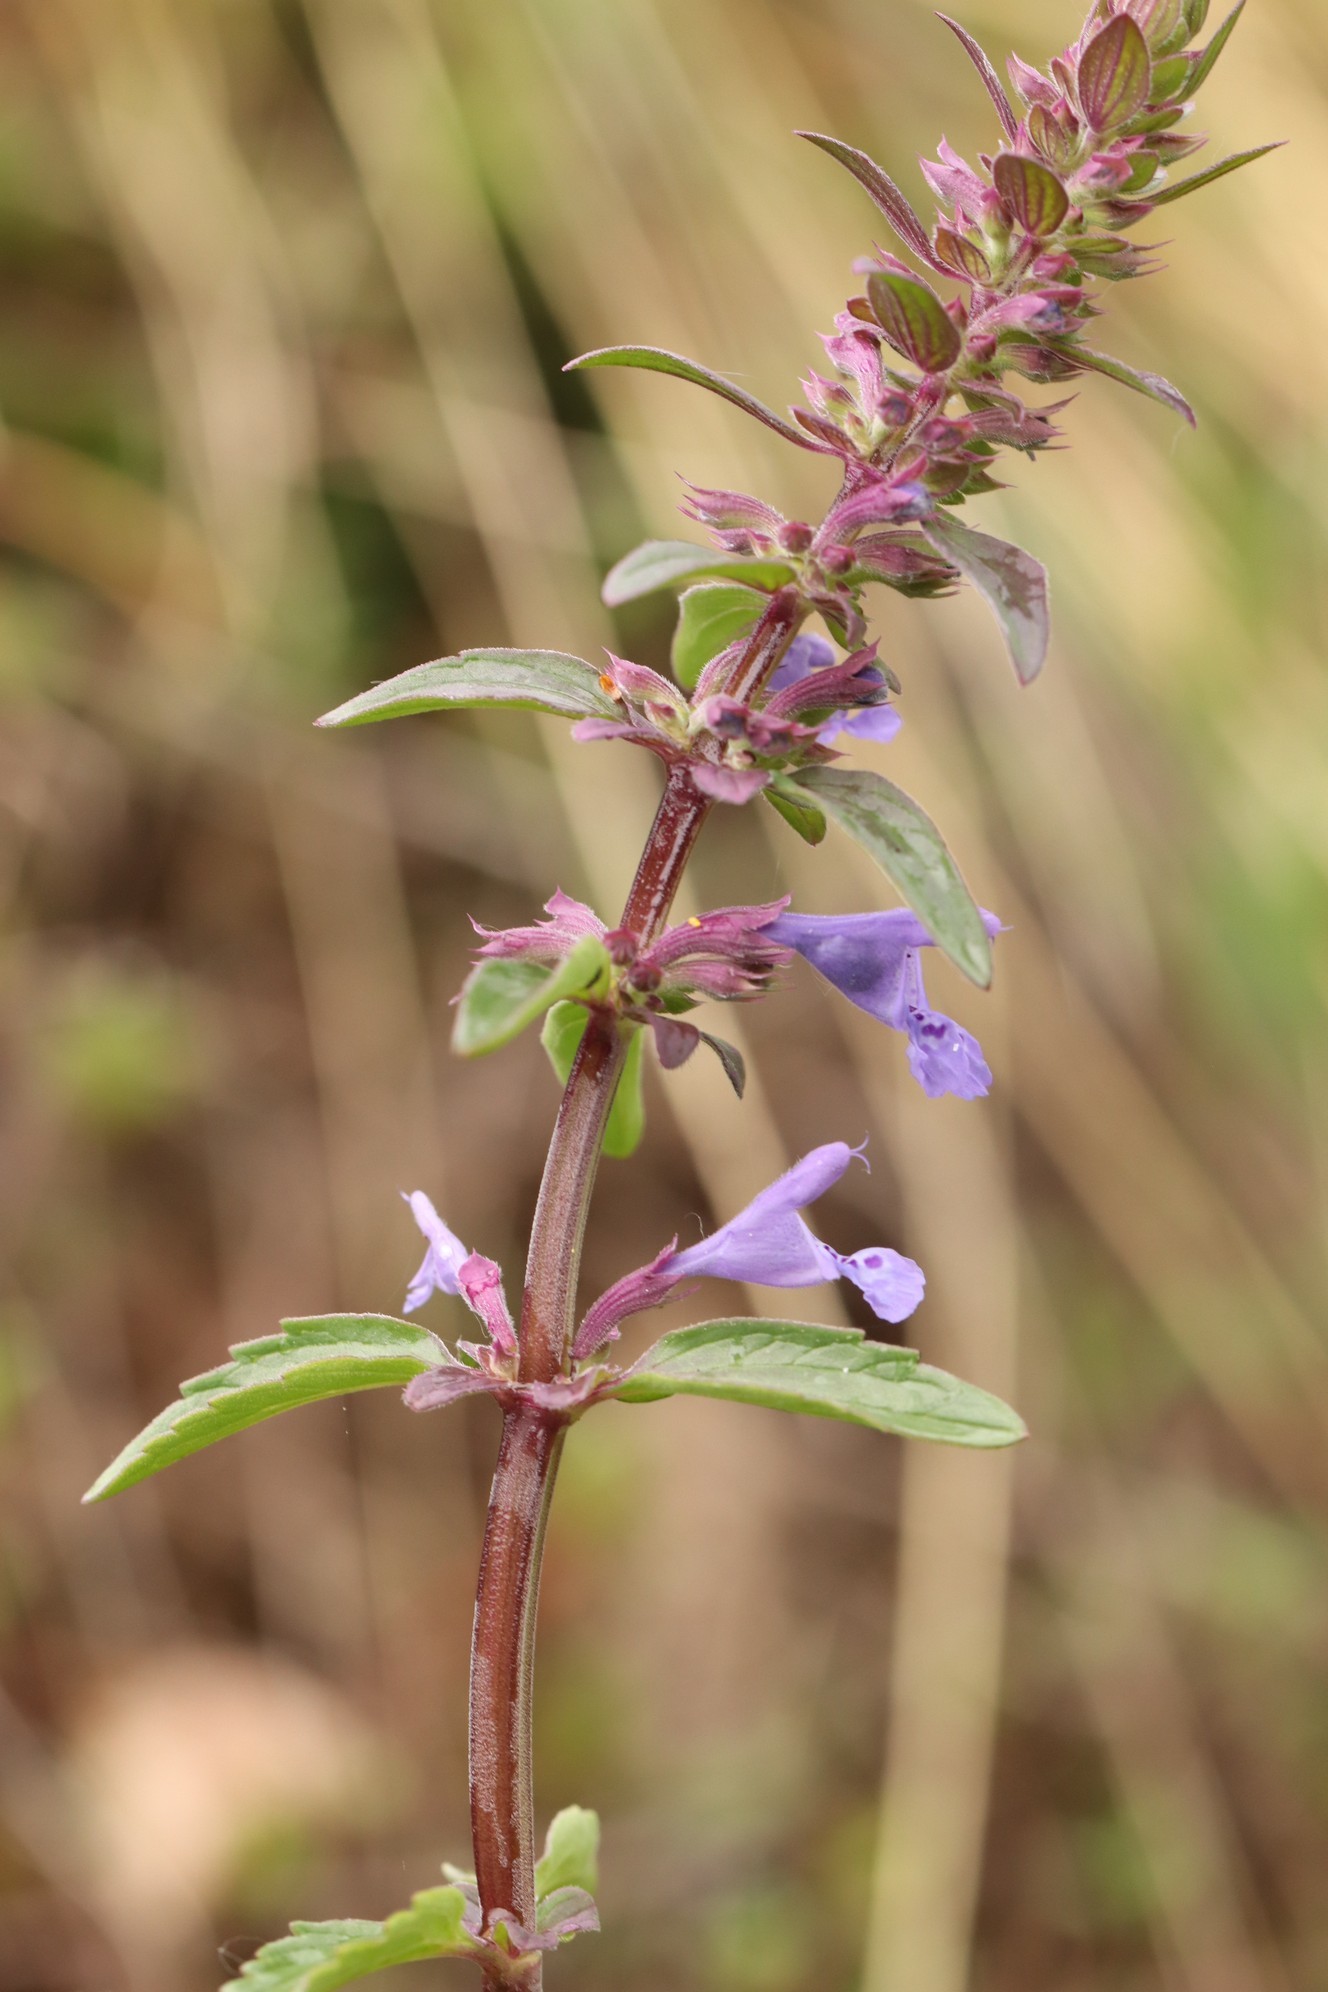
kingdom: Plantae
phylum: Tracheophyta
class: Magnoliopsida
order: Lamiales
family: Lamiaceae
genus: Dracocephalum
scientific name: Dracocephalum nutans
